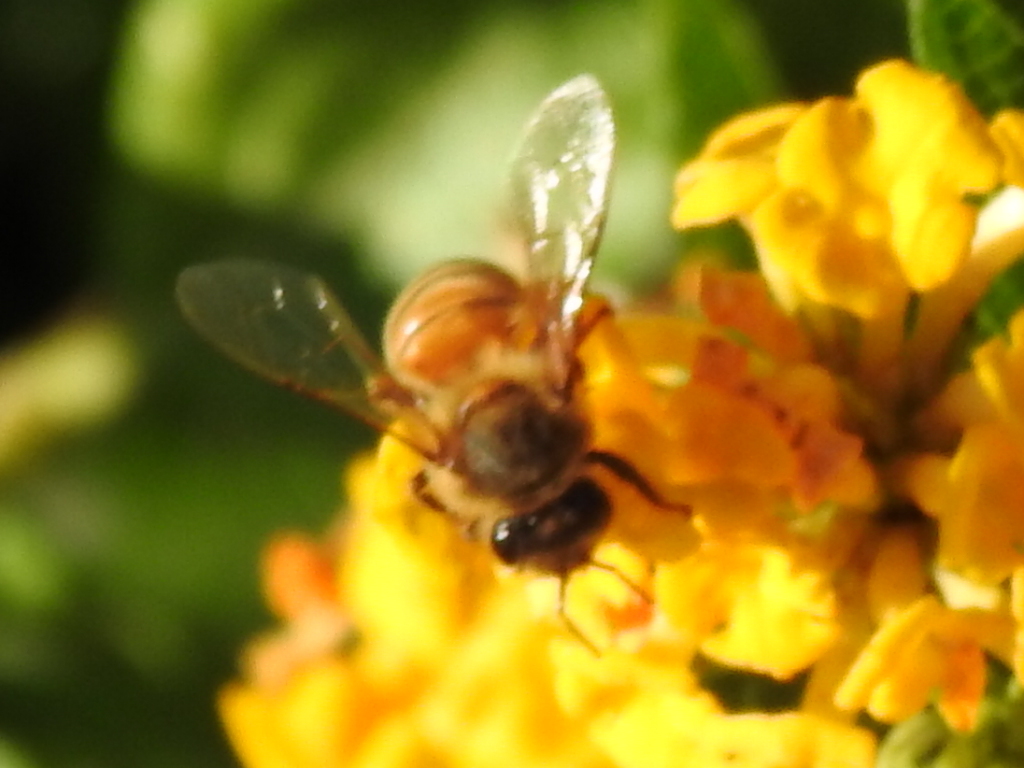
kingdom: Animalia
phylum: Arthropoda
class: Insecta
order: Hymenoptera
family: Apidae
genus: Apis
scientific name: Apis mellifera
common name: Honey bee
